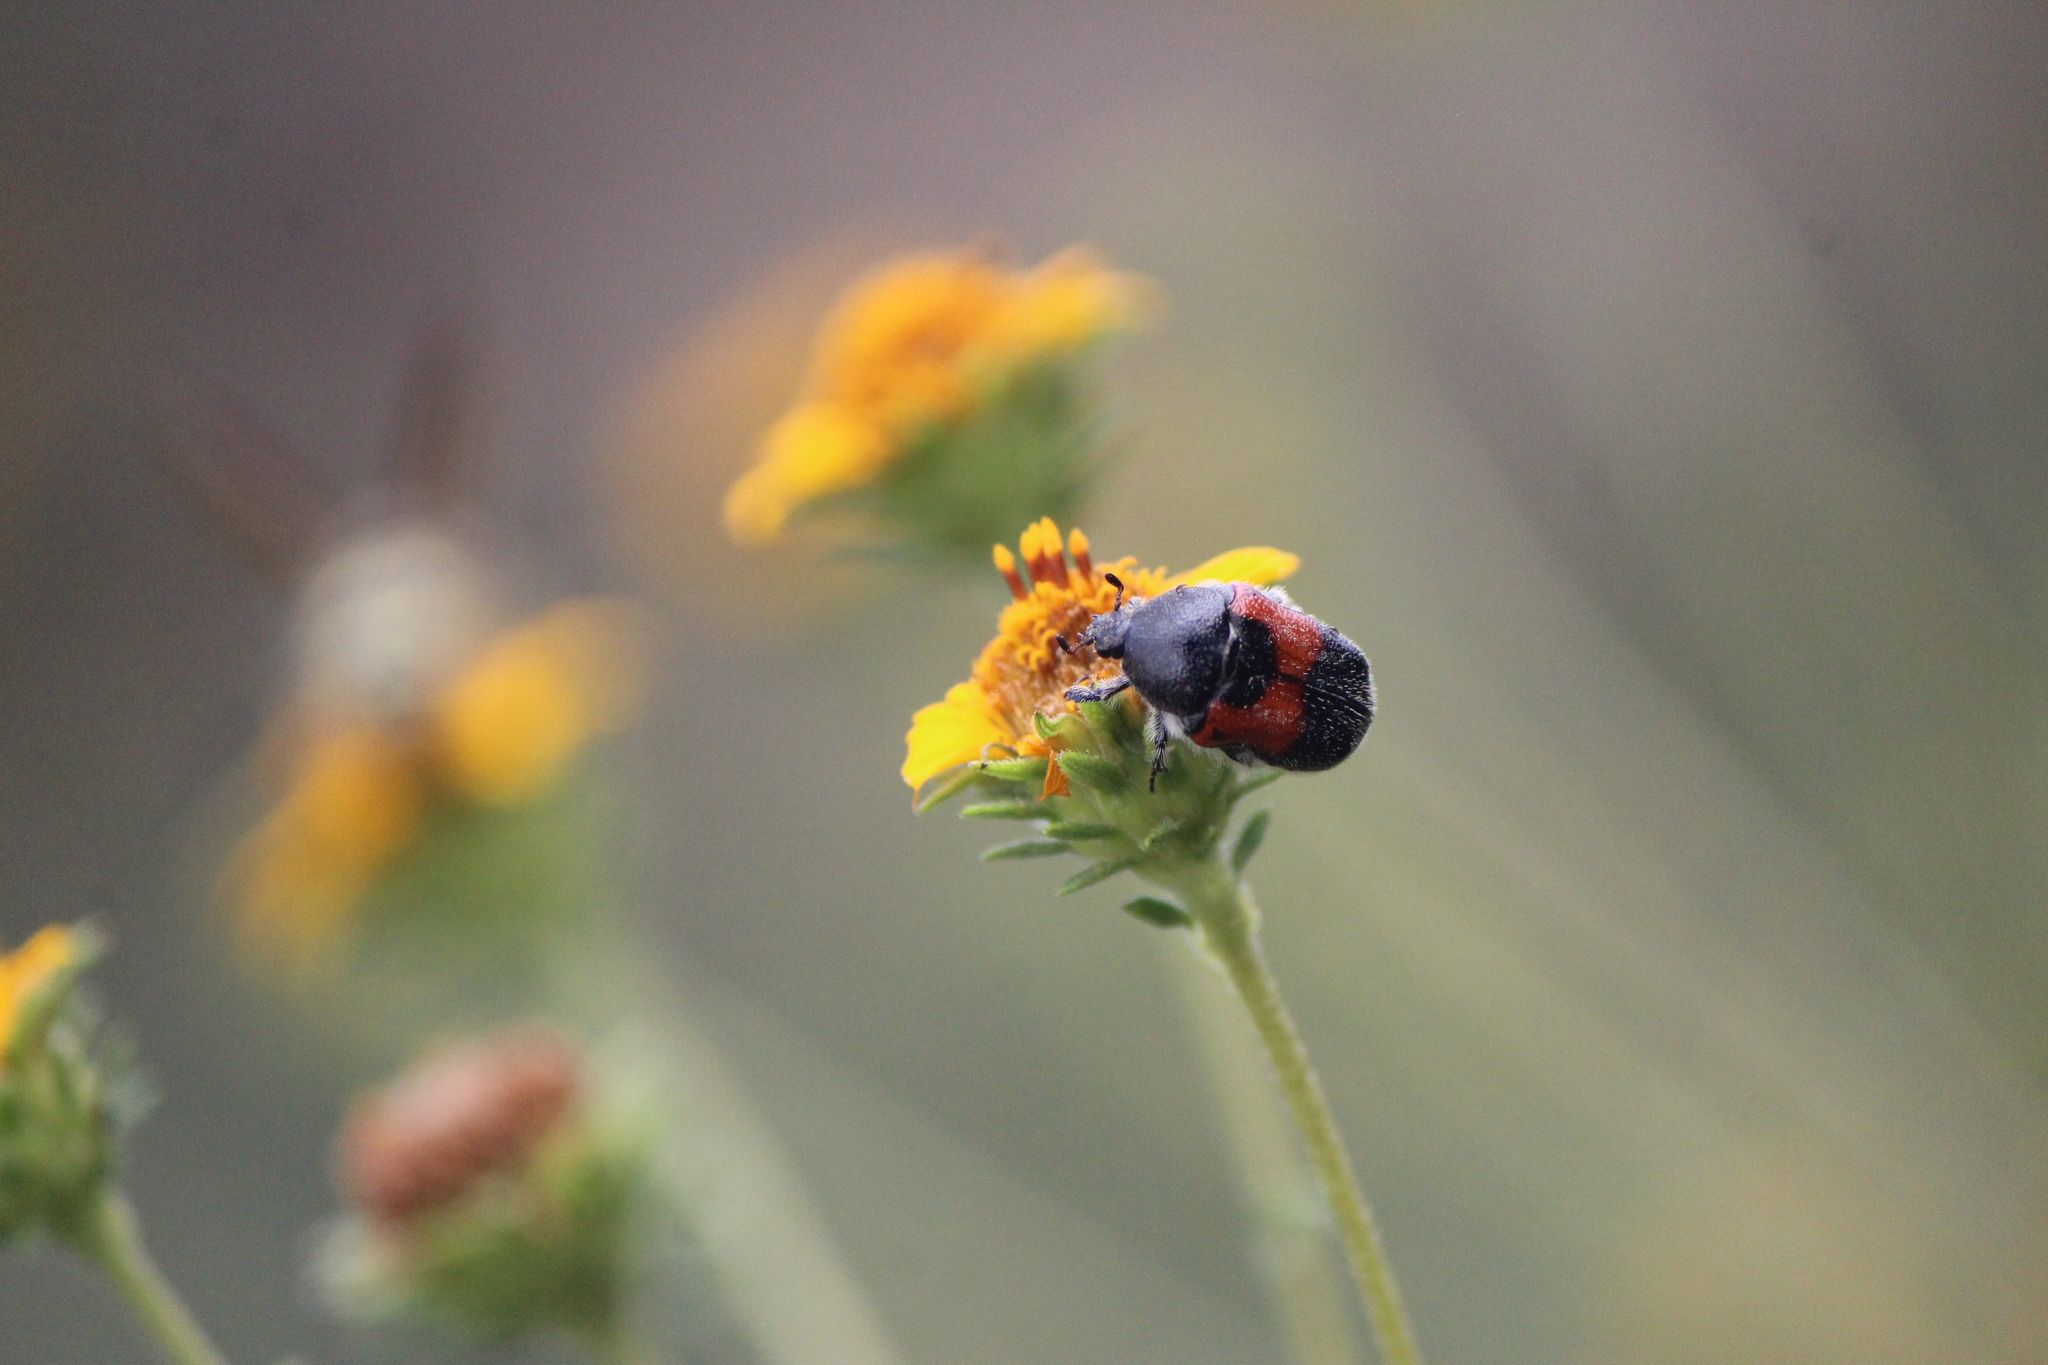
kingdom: Animalia
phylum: Arthropoda
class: Insecta
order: Coleoptera
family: Scarabaeidae
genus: Euphoria
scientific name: Euphoria dimidiata
